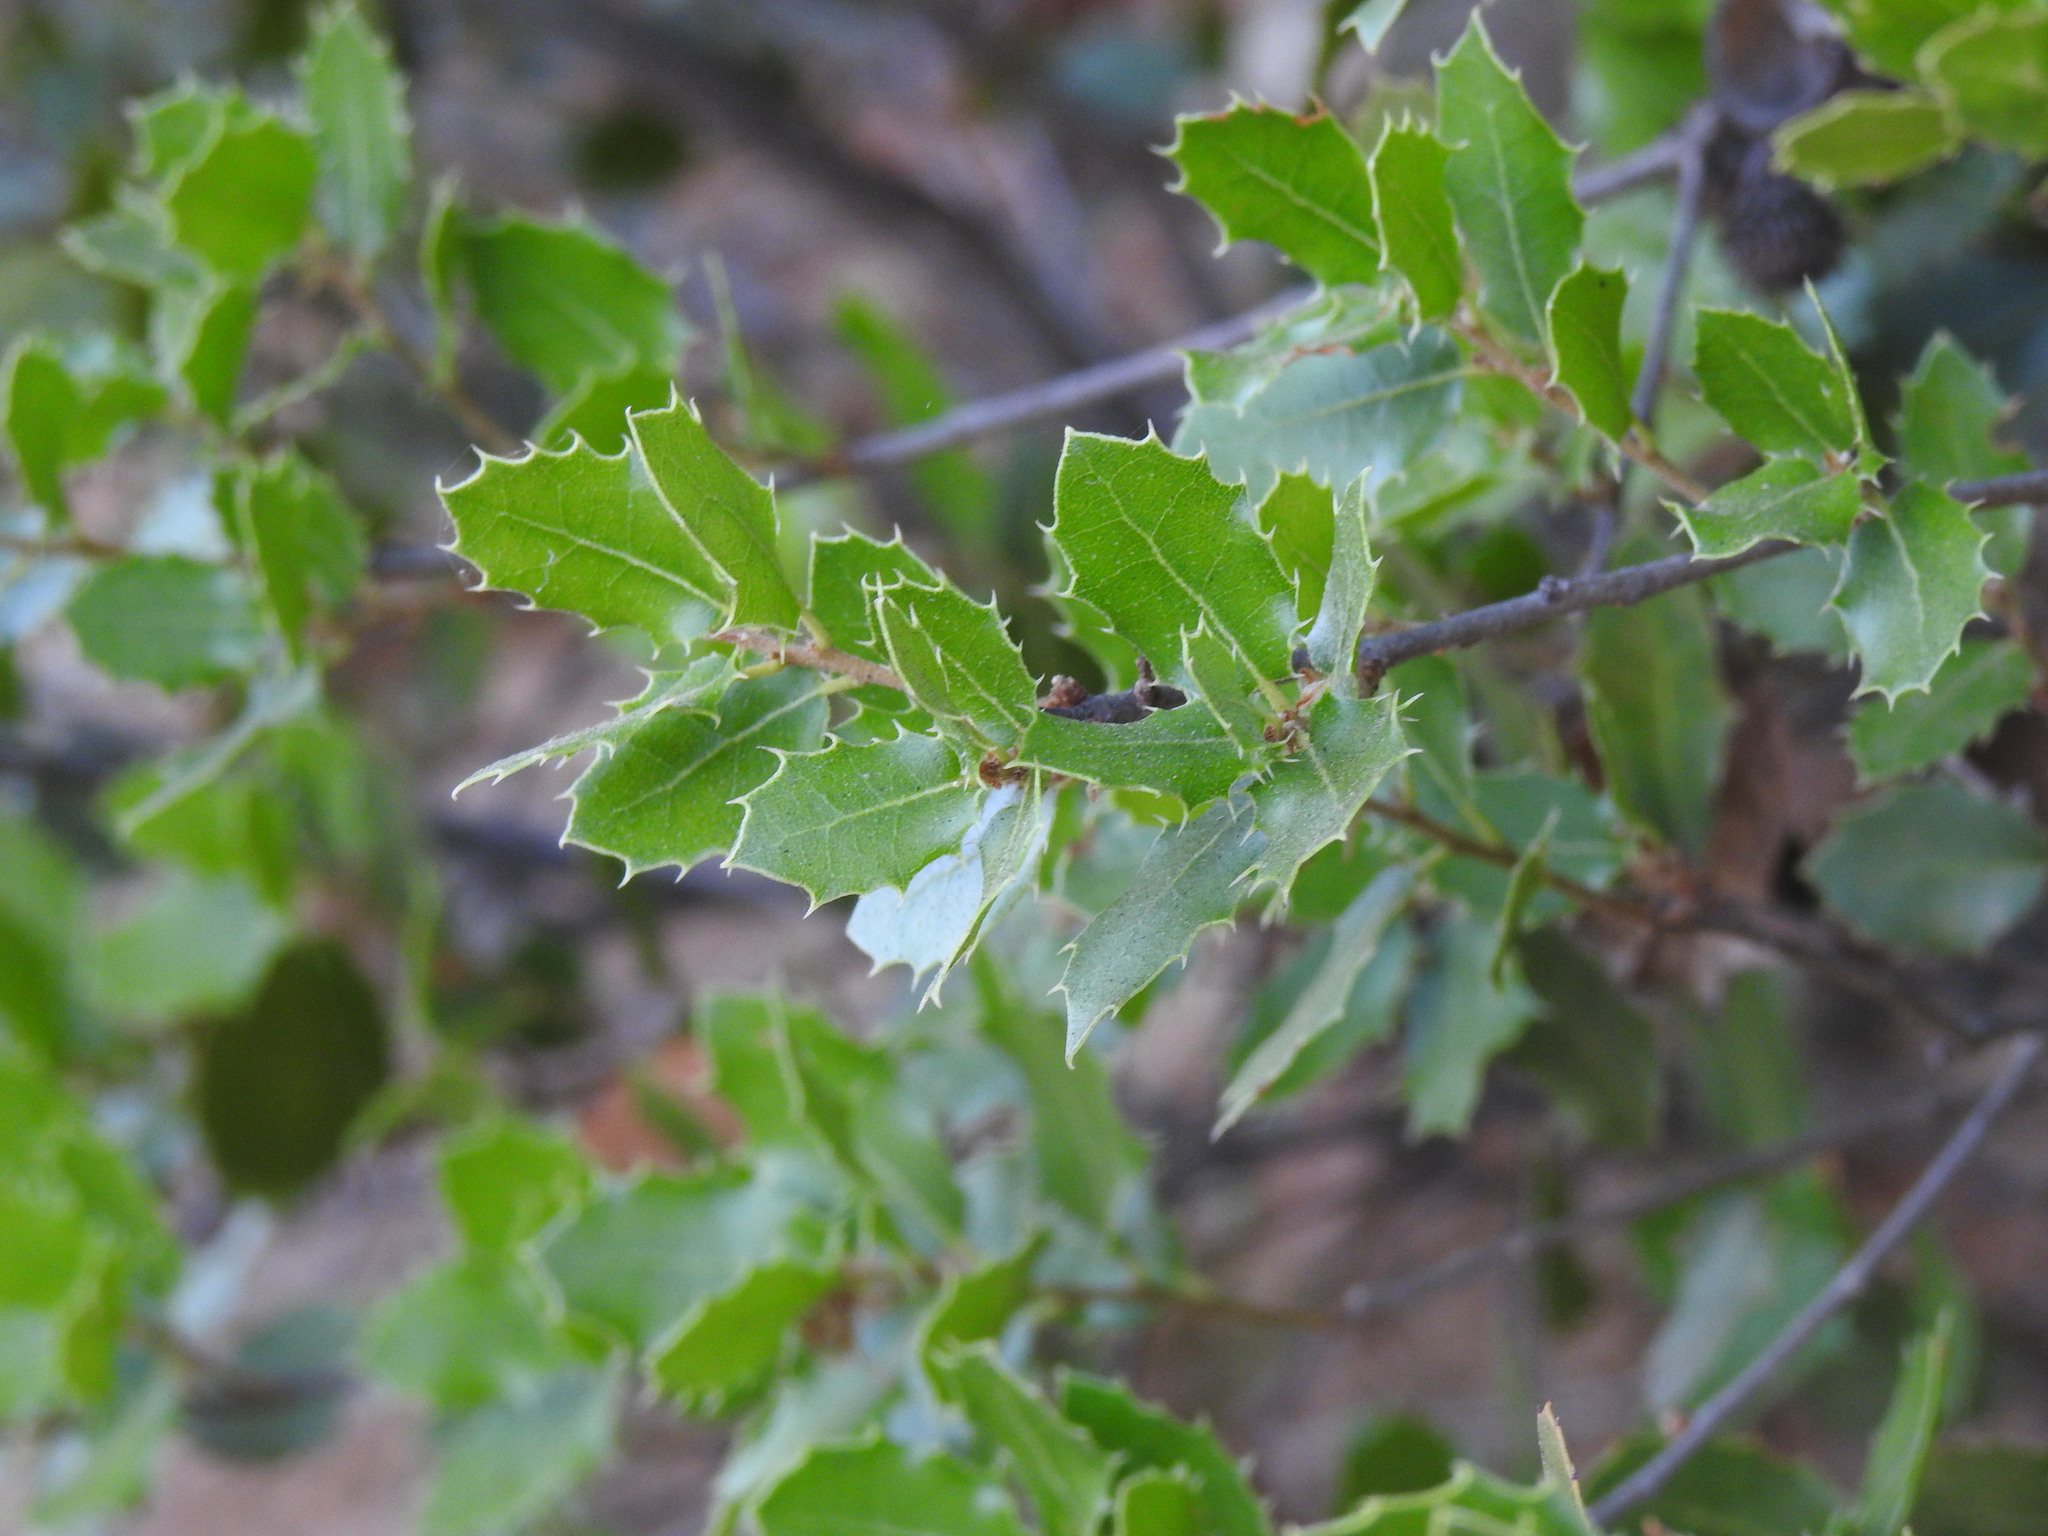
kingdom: Plantae
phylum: Tracheophyta
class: Magnoliopsida
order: Fagales
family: Fagaceae
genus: Quercus
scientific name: Quercus coccifera
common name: Kermes oak
